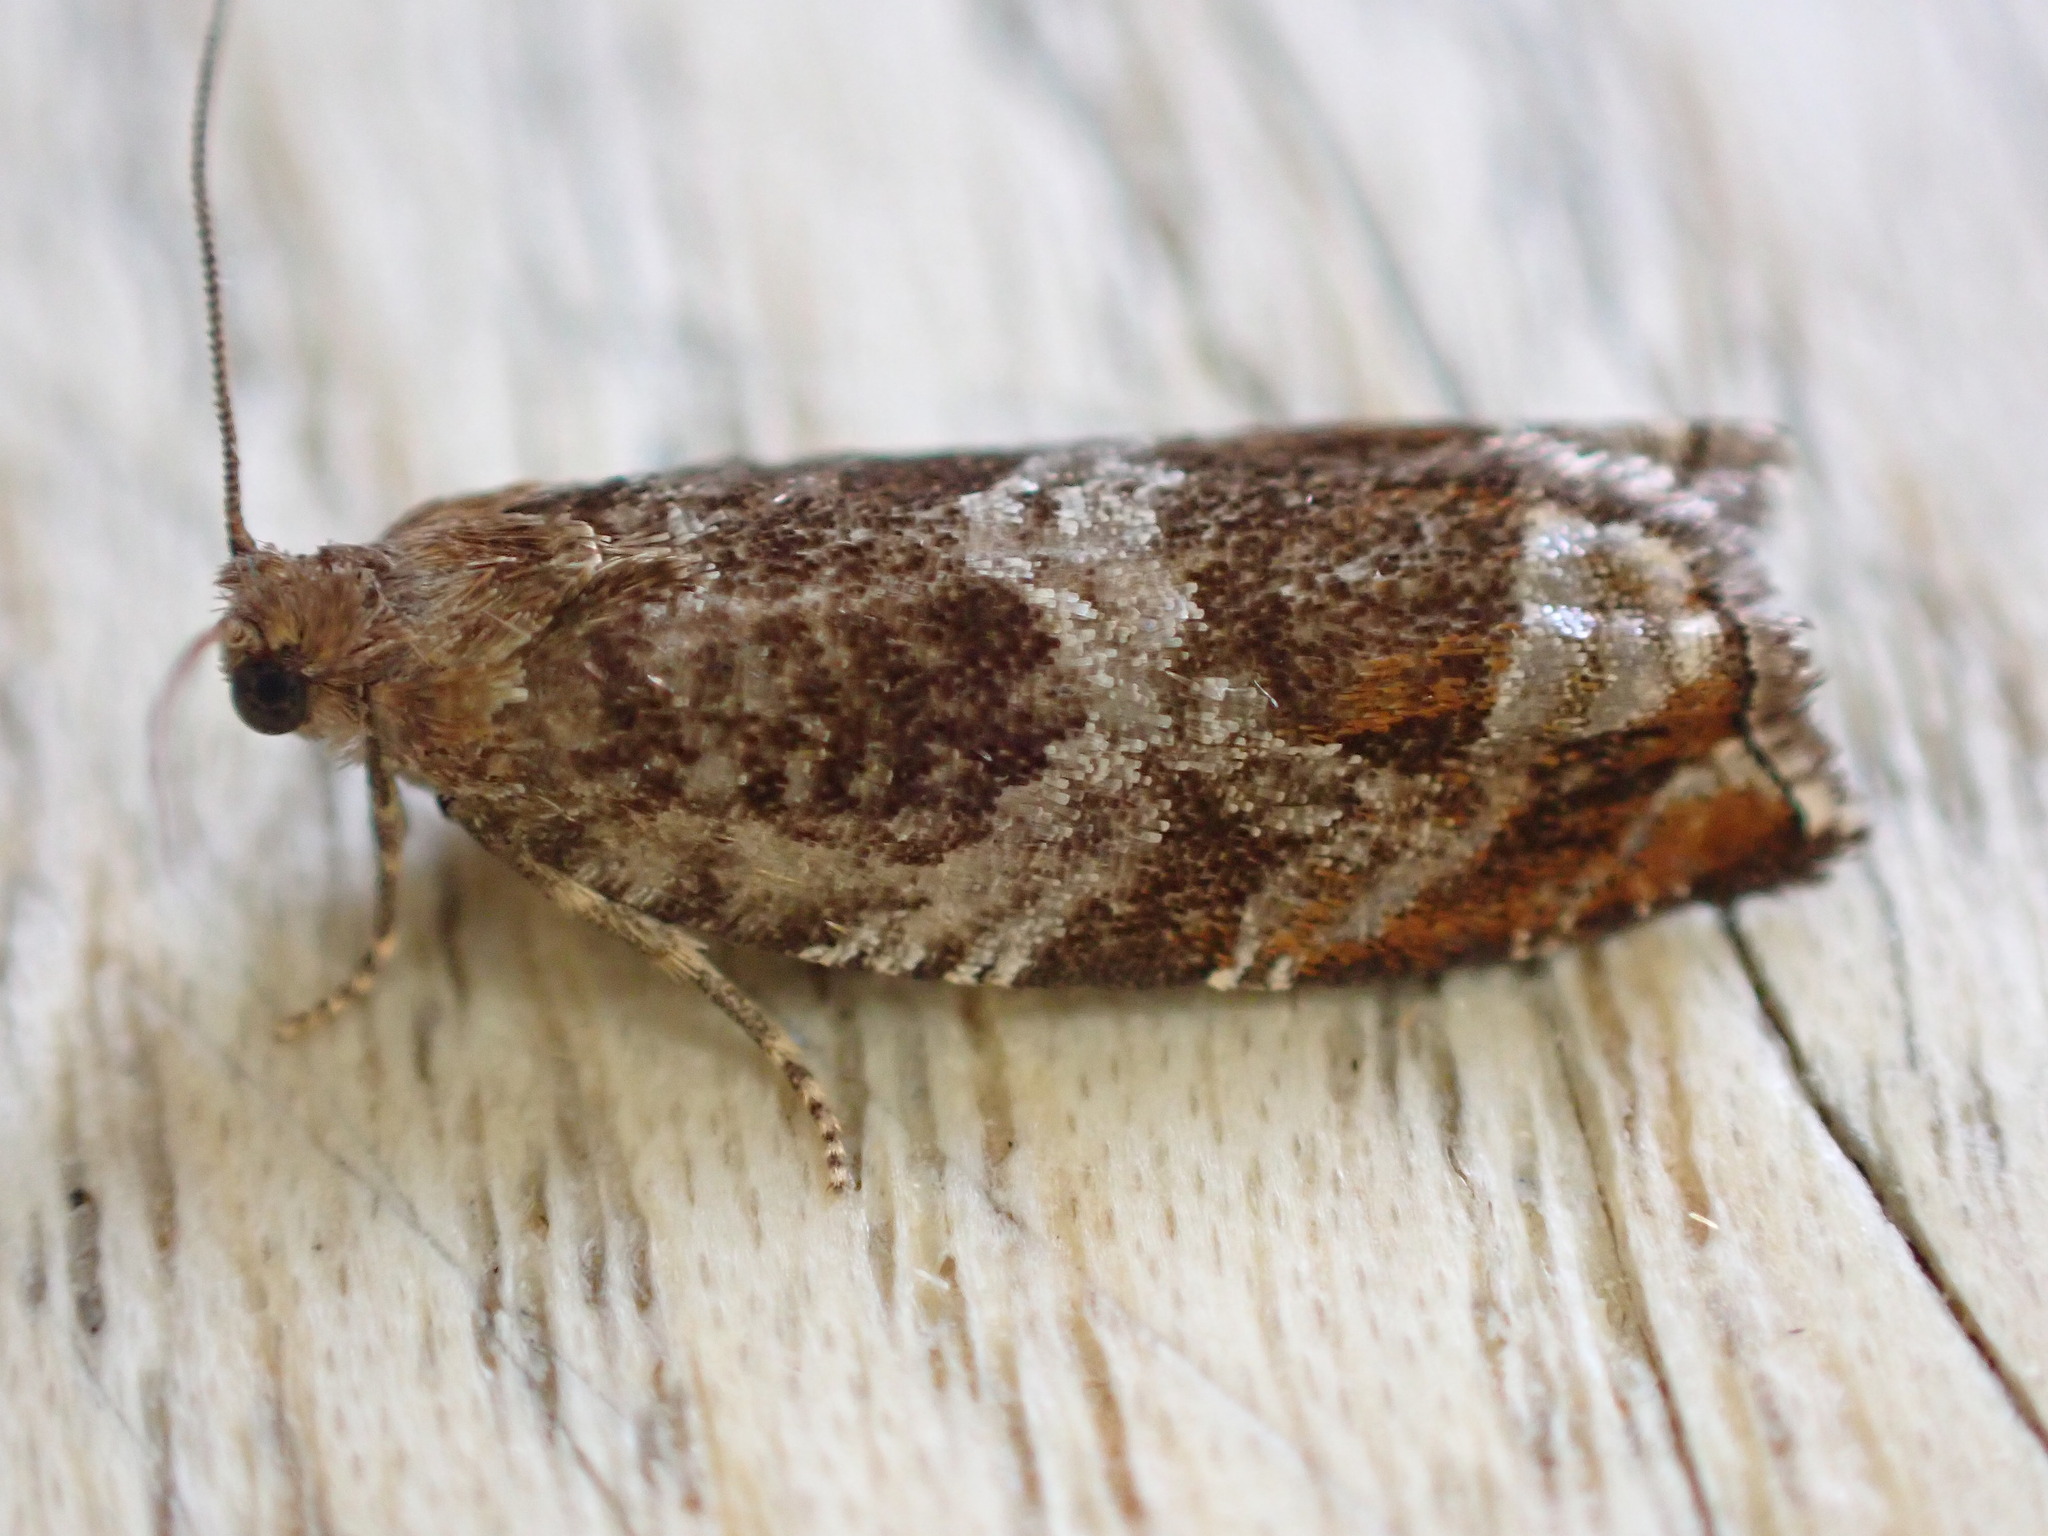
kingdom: Animalia
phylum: Arthropoda
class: Insecta
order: Lepidoptera
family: Tortricidae
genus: Ancylis
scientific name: Ancylis achatana
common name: Triangle-marked roller
